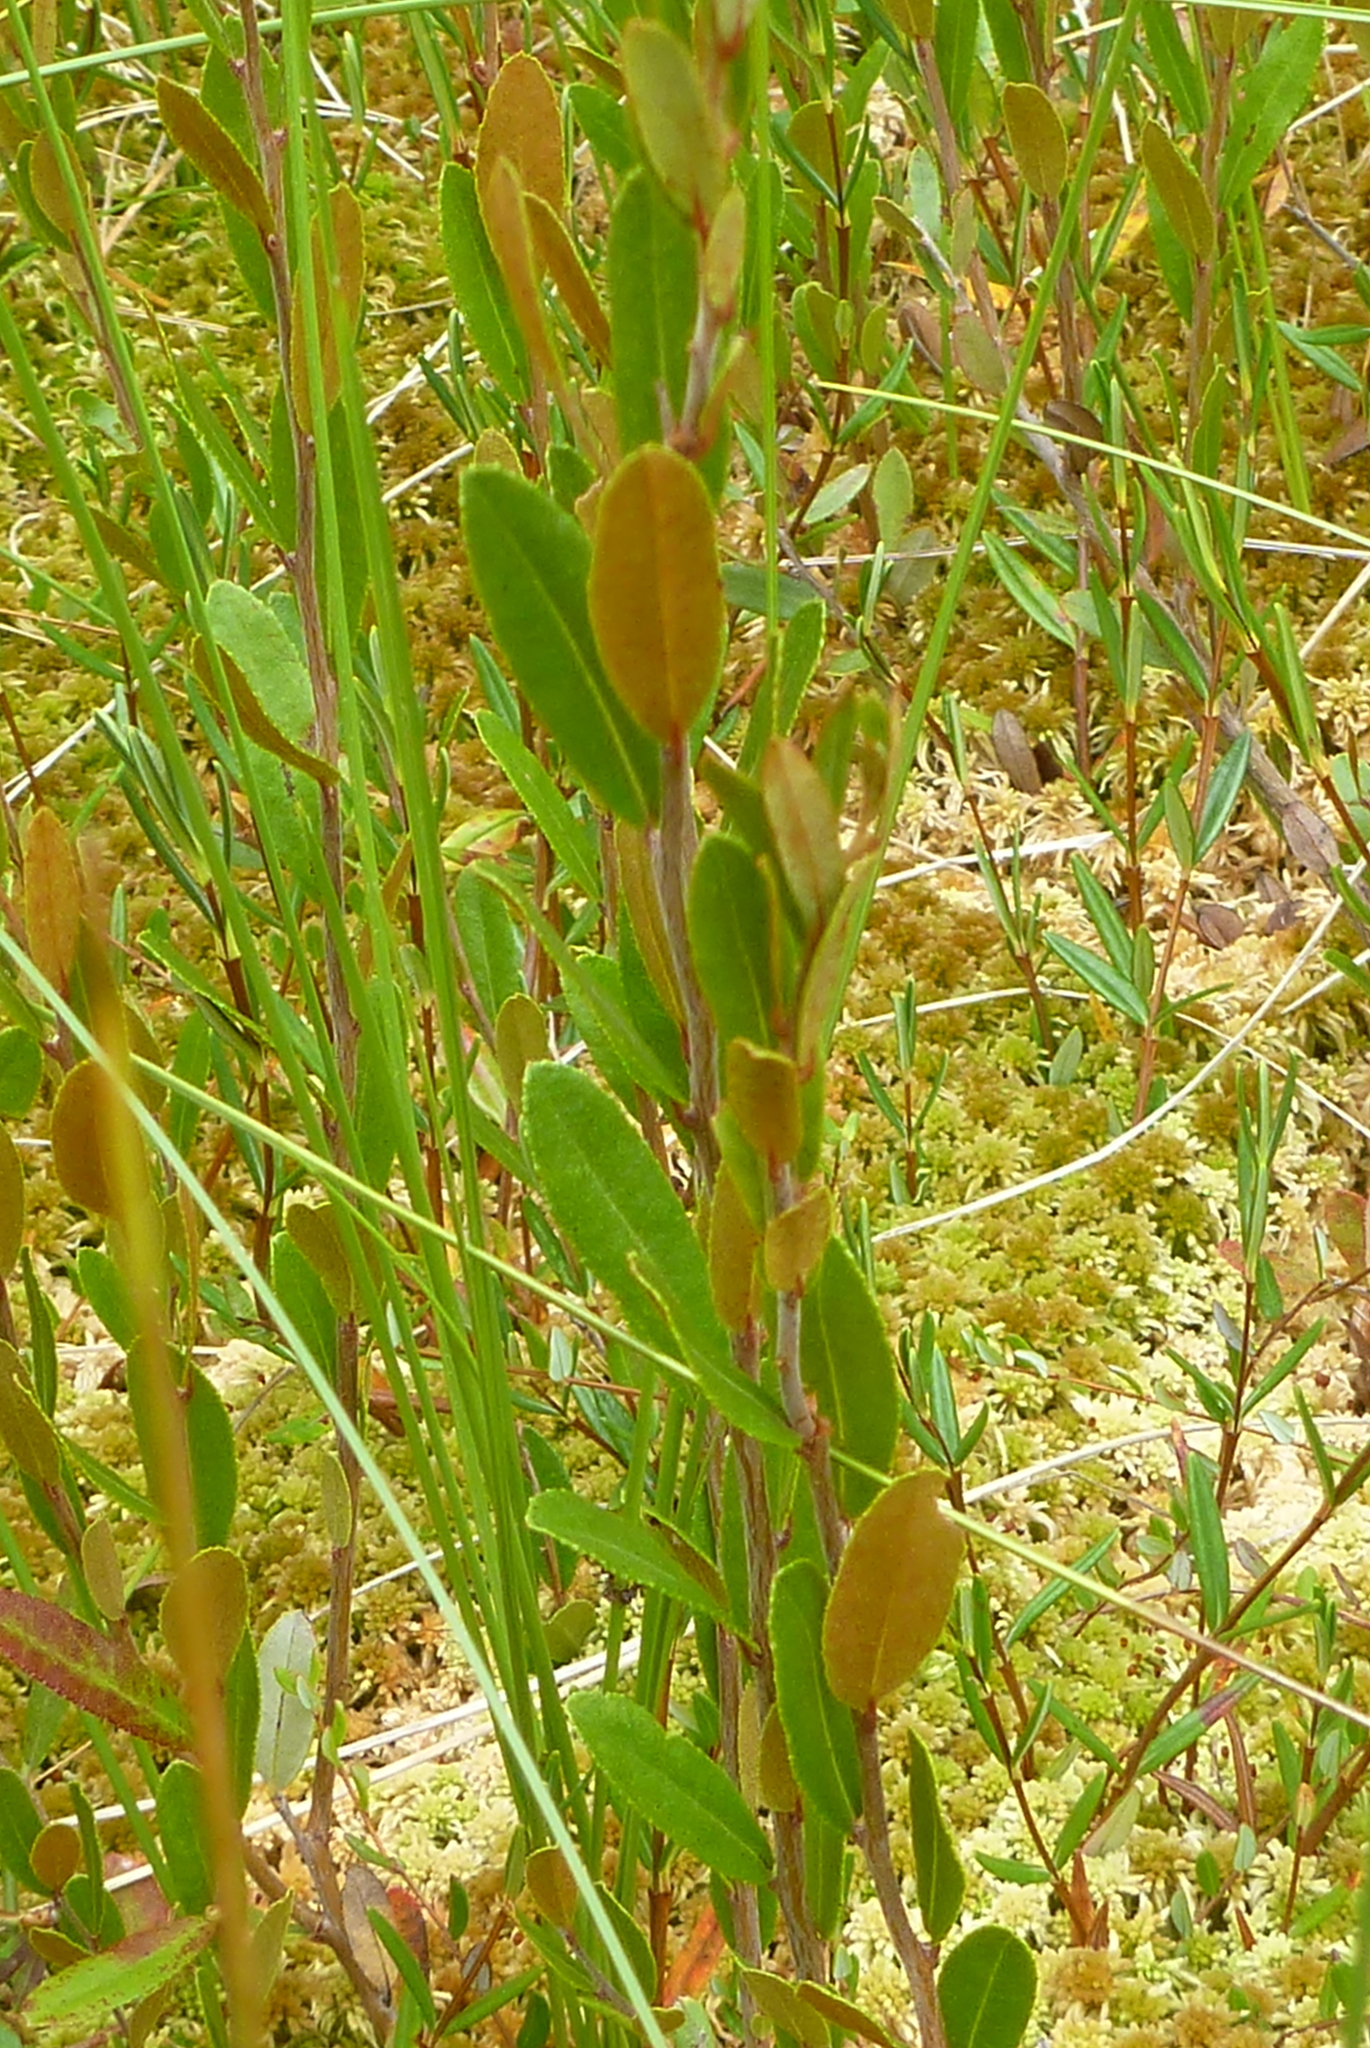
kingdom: Plantae
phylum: Tracheophyta
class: Magnoliopsida
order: Ericales
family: Ericaceae
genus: Chamaedaphne
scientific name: Chamaedaphne calyculata
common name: Leatherleaf
